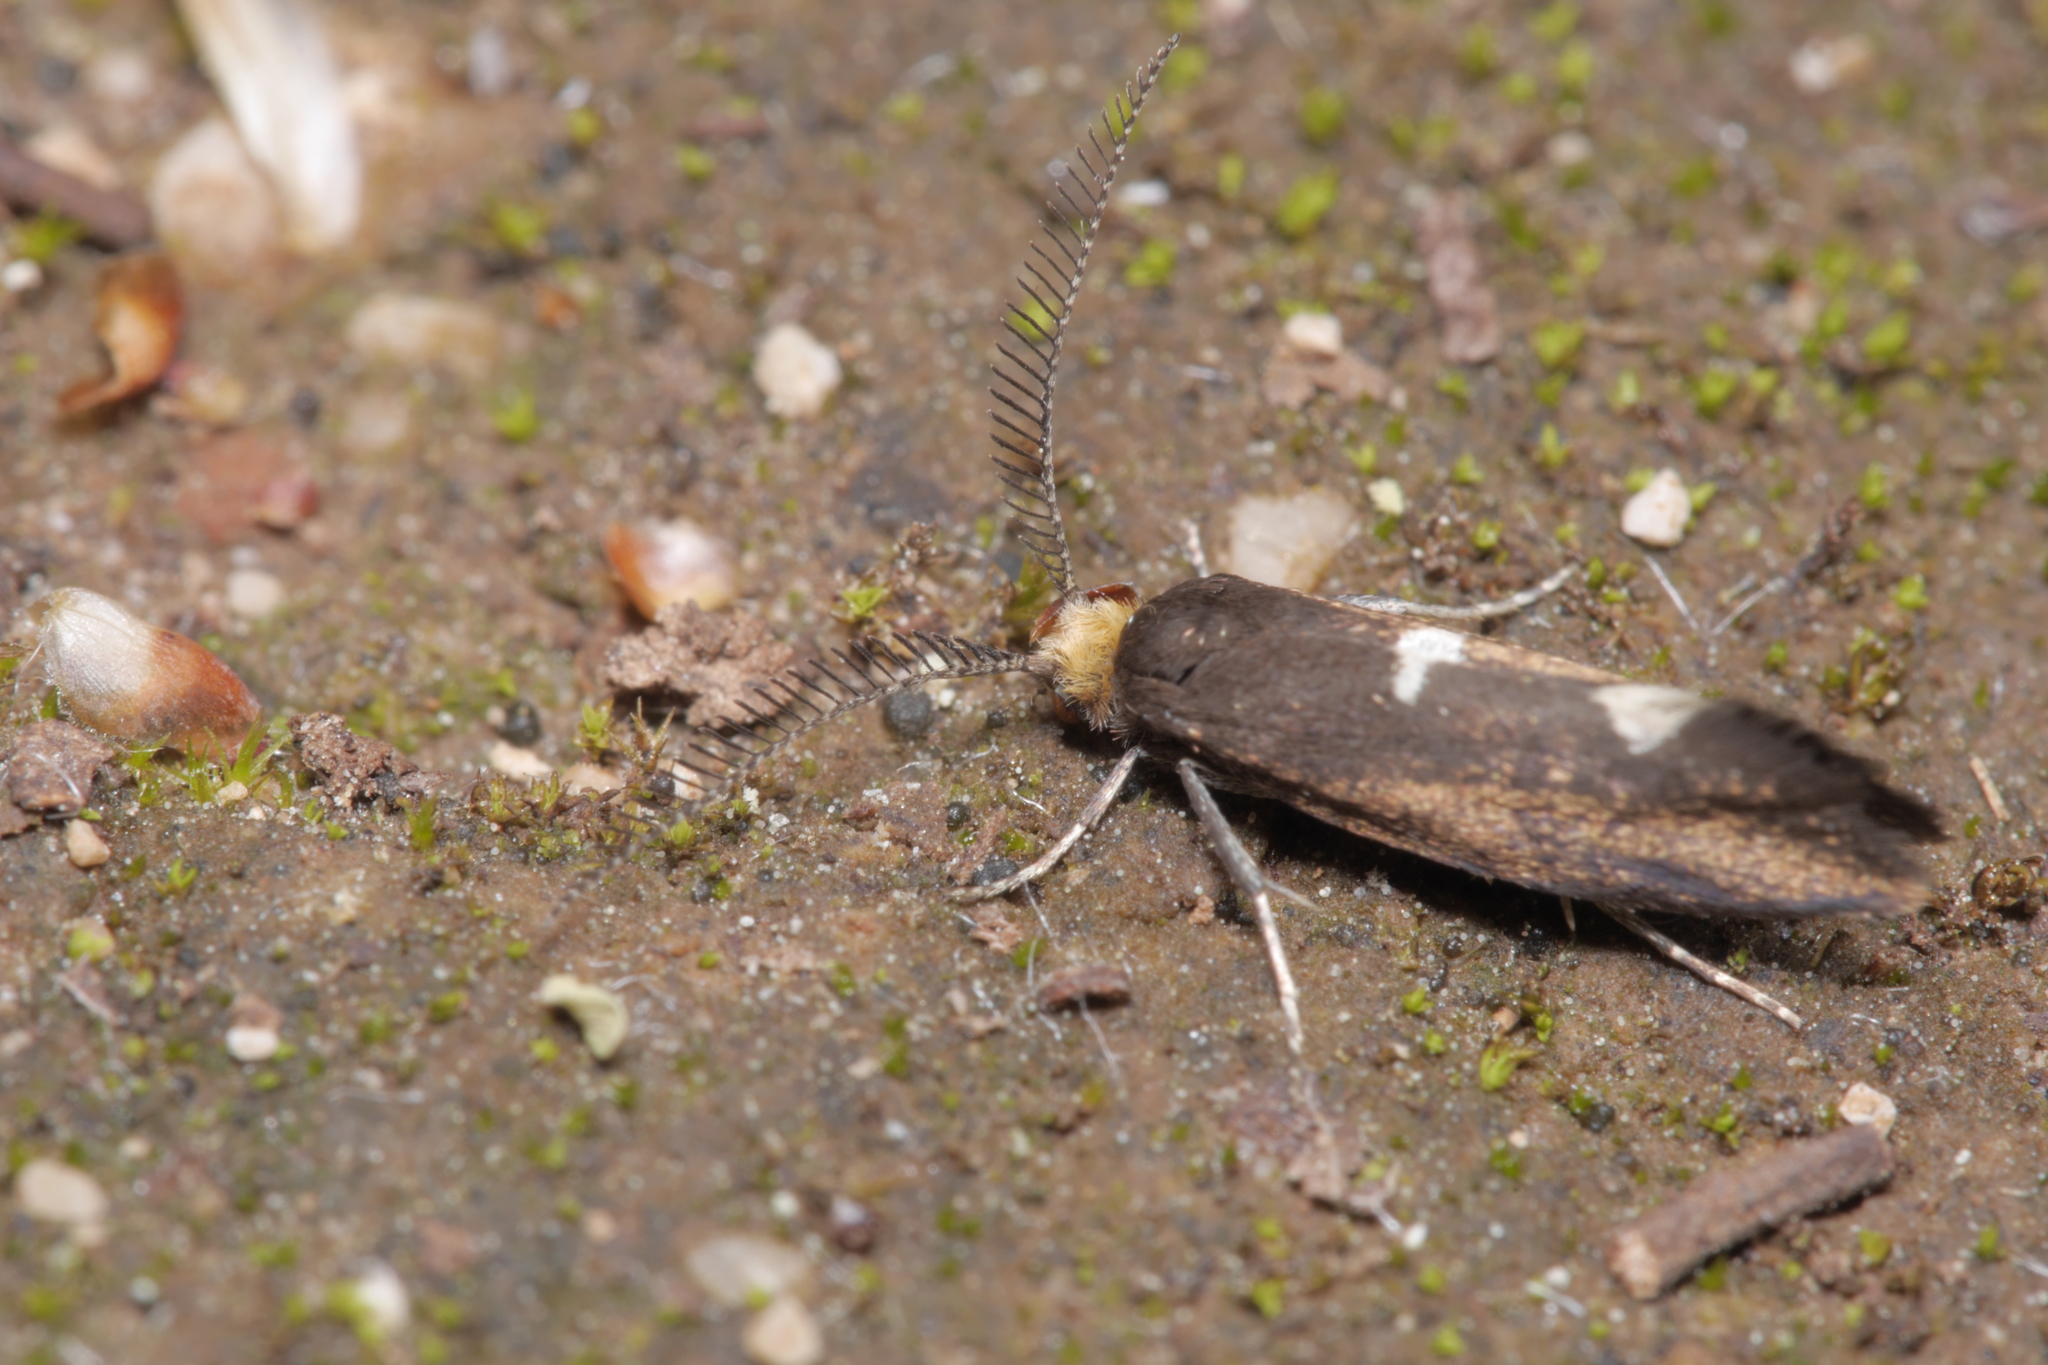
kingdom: Animalia
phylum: Arthropoda
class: Insecta
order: Lepidoptera
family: Incurvariidae
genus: Incurvaria
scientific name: Incurvaria masculella
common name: Feathered leaf-cutter
